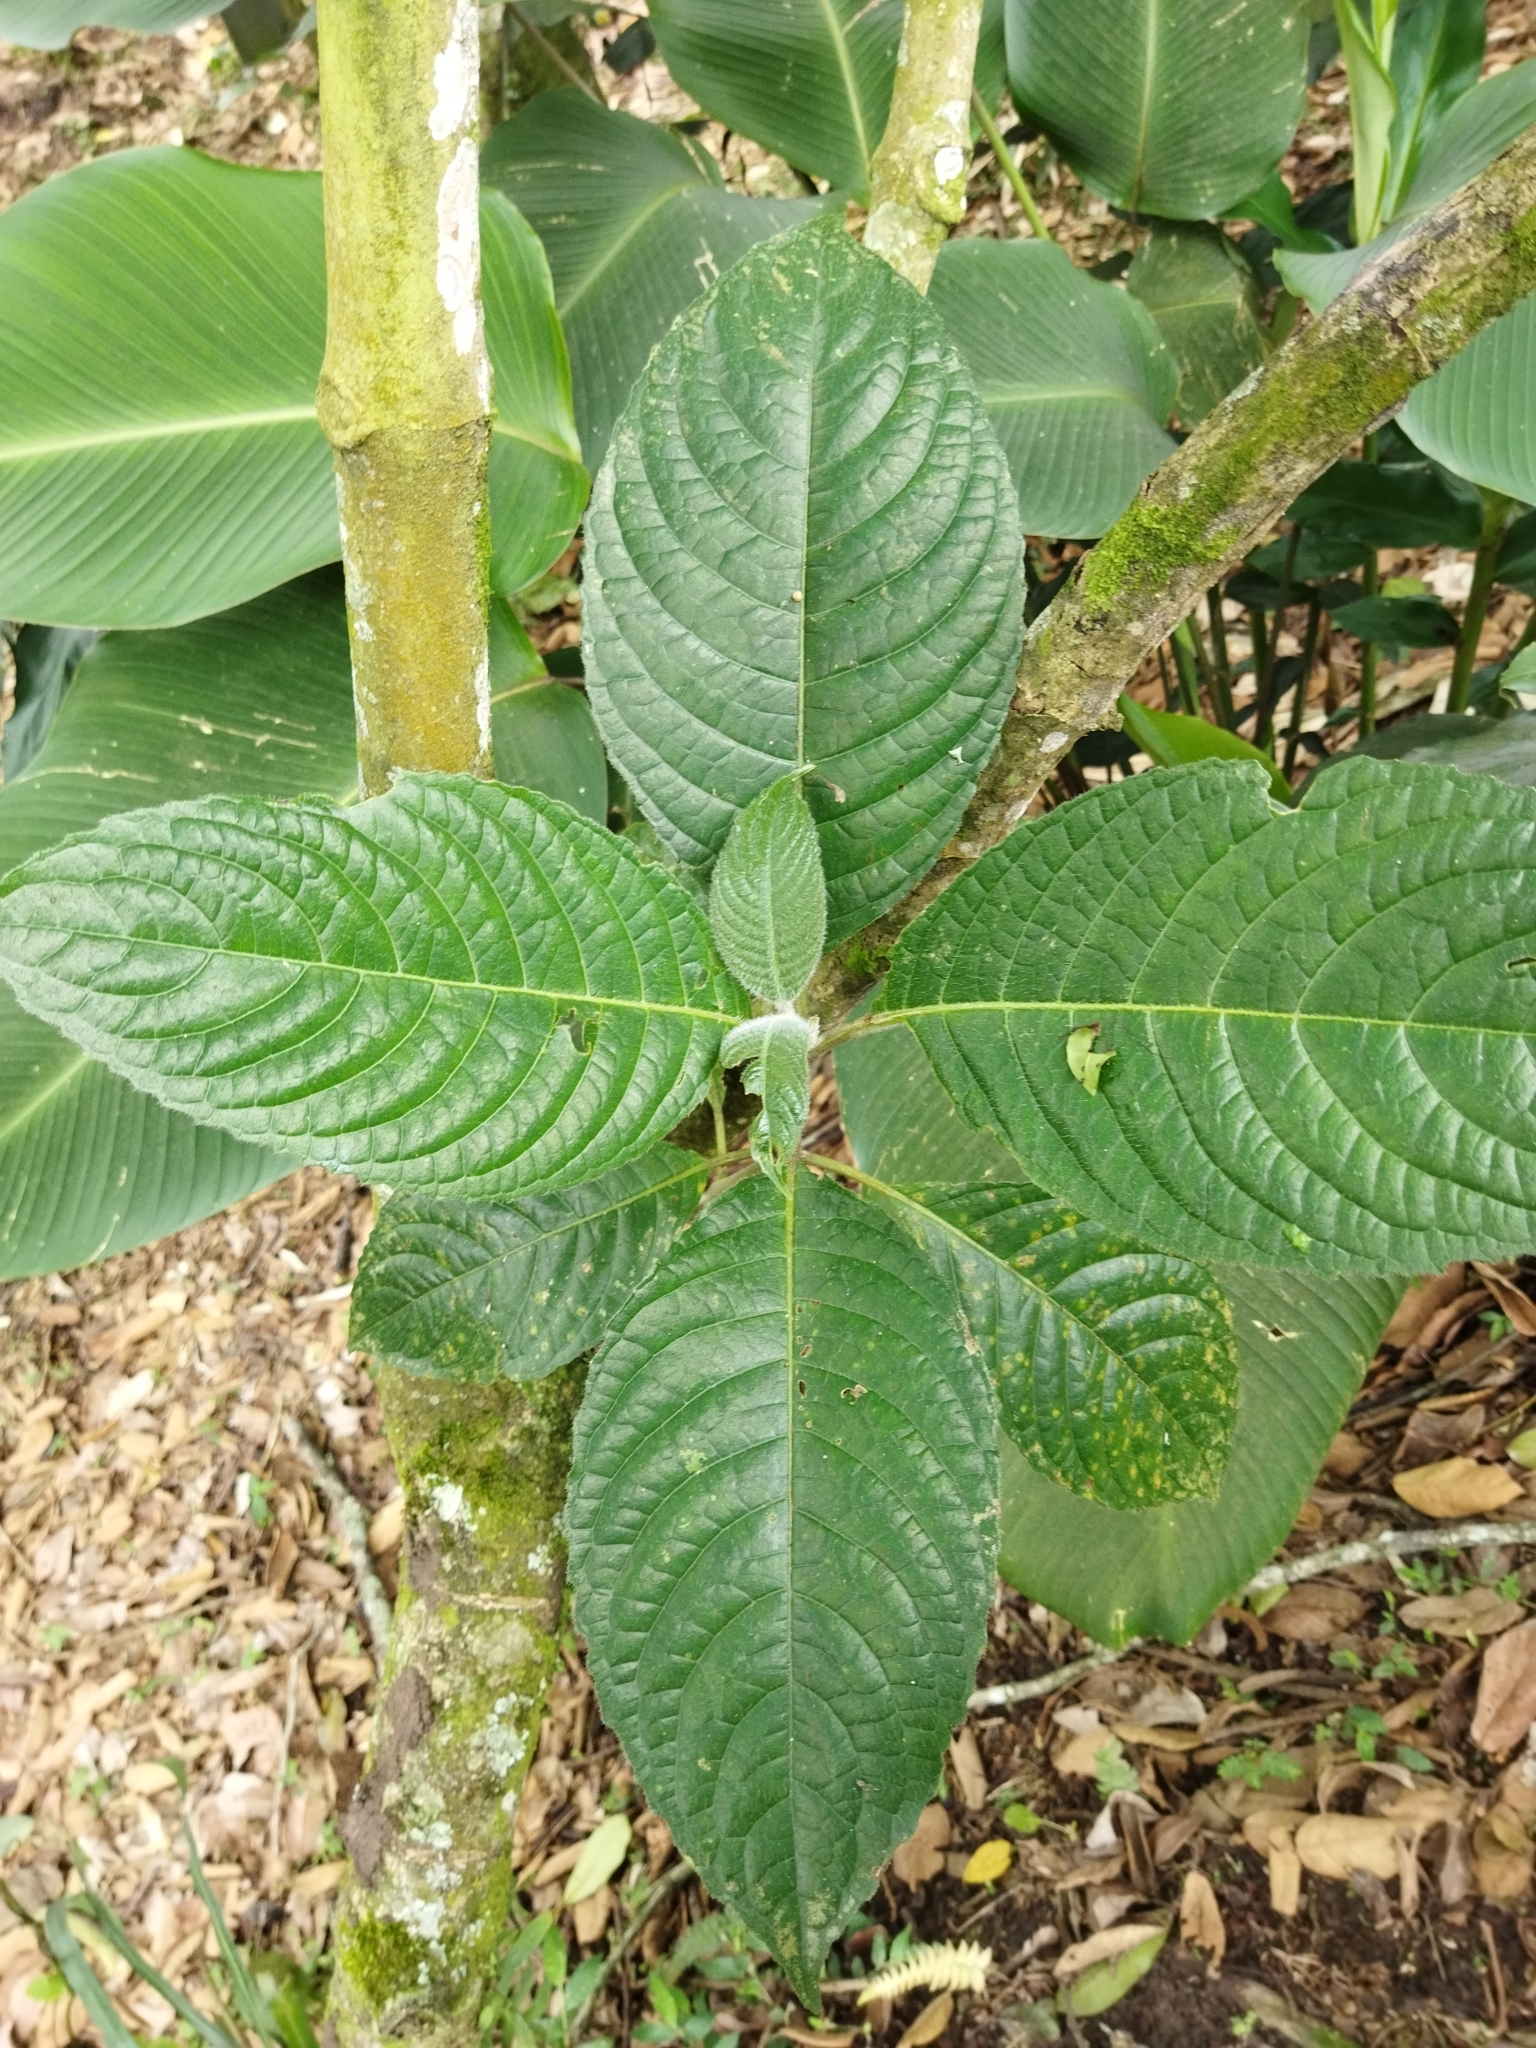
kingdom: Plantae
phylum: Tracheophyta
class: Magnoliopsida
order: Lamiales
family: Acanthaceae
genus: Trichanthera
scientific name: Trichanthera gigantea
